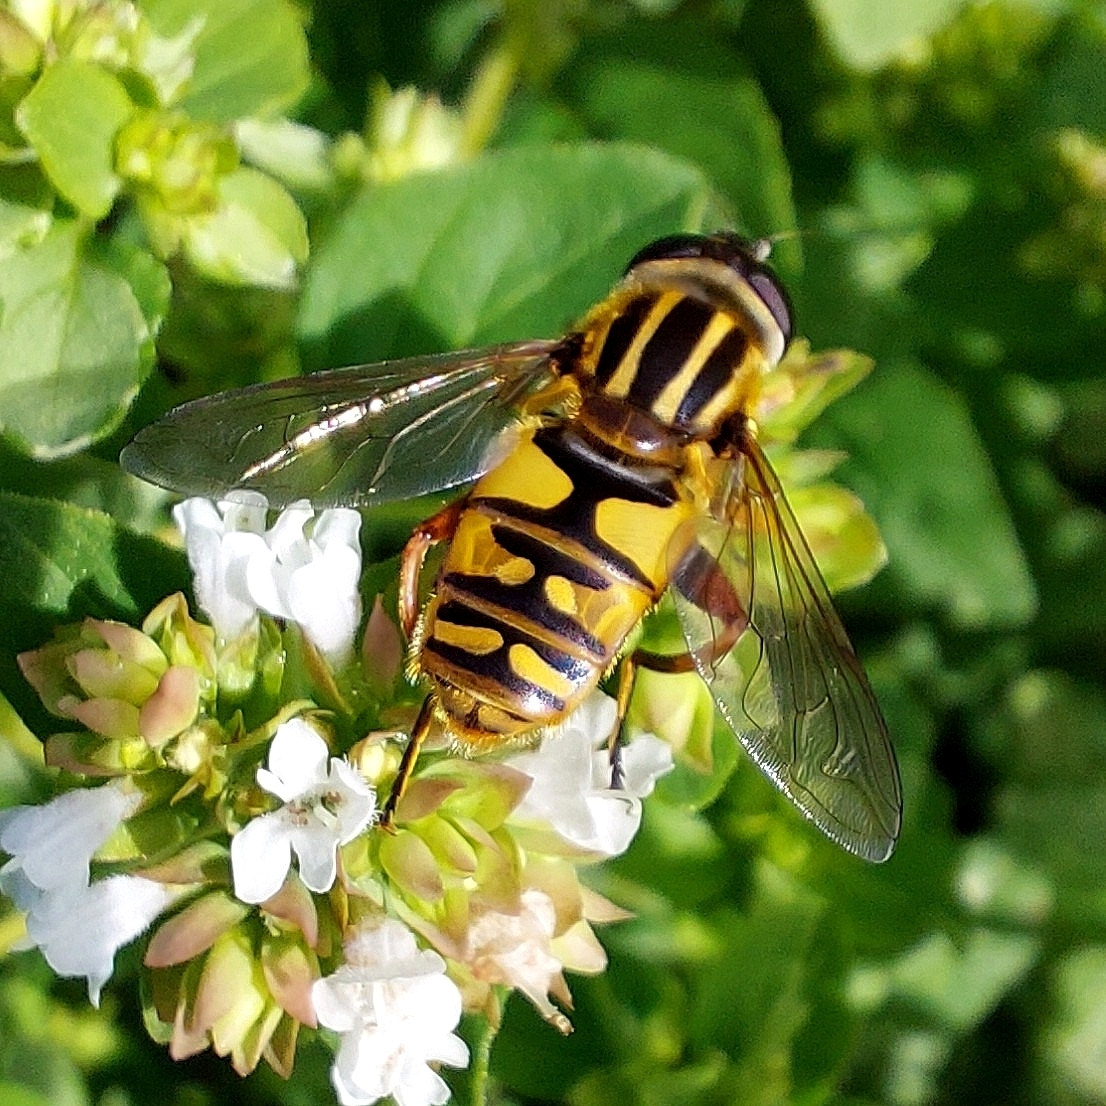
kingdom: Animalia
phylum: Arthropoda
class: Insecta
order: Diptera
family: Syrphidae
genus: Helophilus
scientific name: Helophilus pendulus
